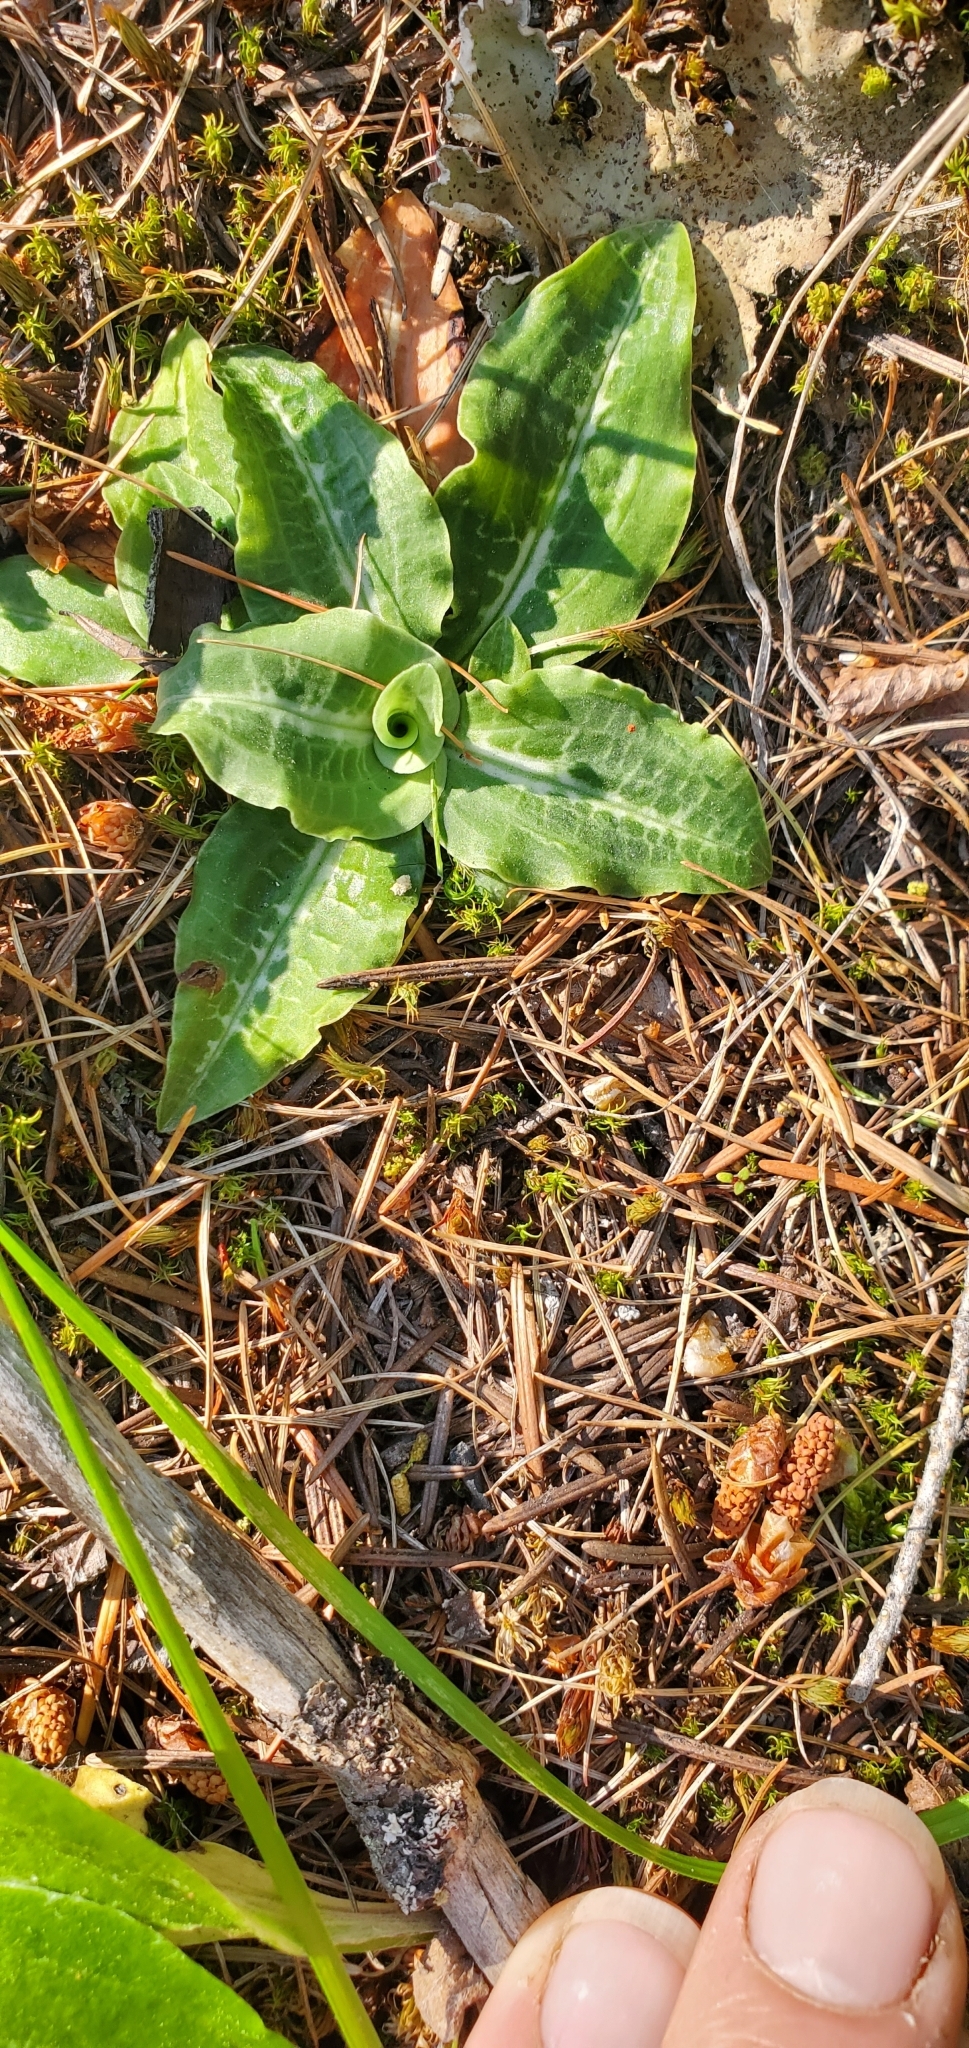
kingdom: Plantae
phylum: Tracheophyta
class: Liliopsida
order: Asparagales
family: Orchidaceae
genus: Goodyera
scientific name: Goodyera oblongifolia
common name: Giant rattlesnake-plantain
